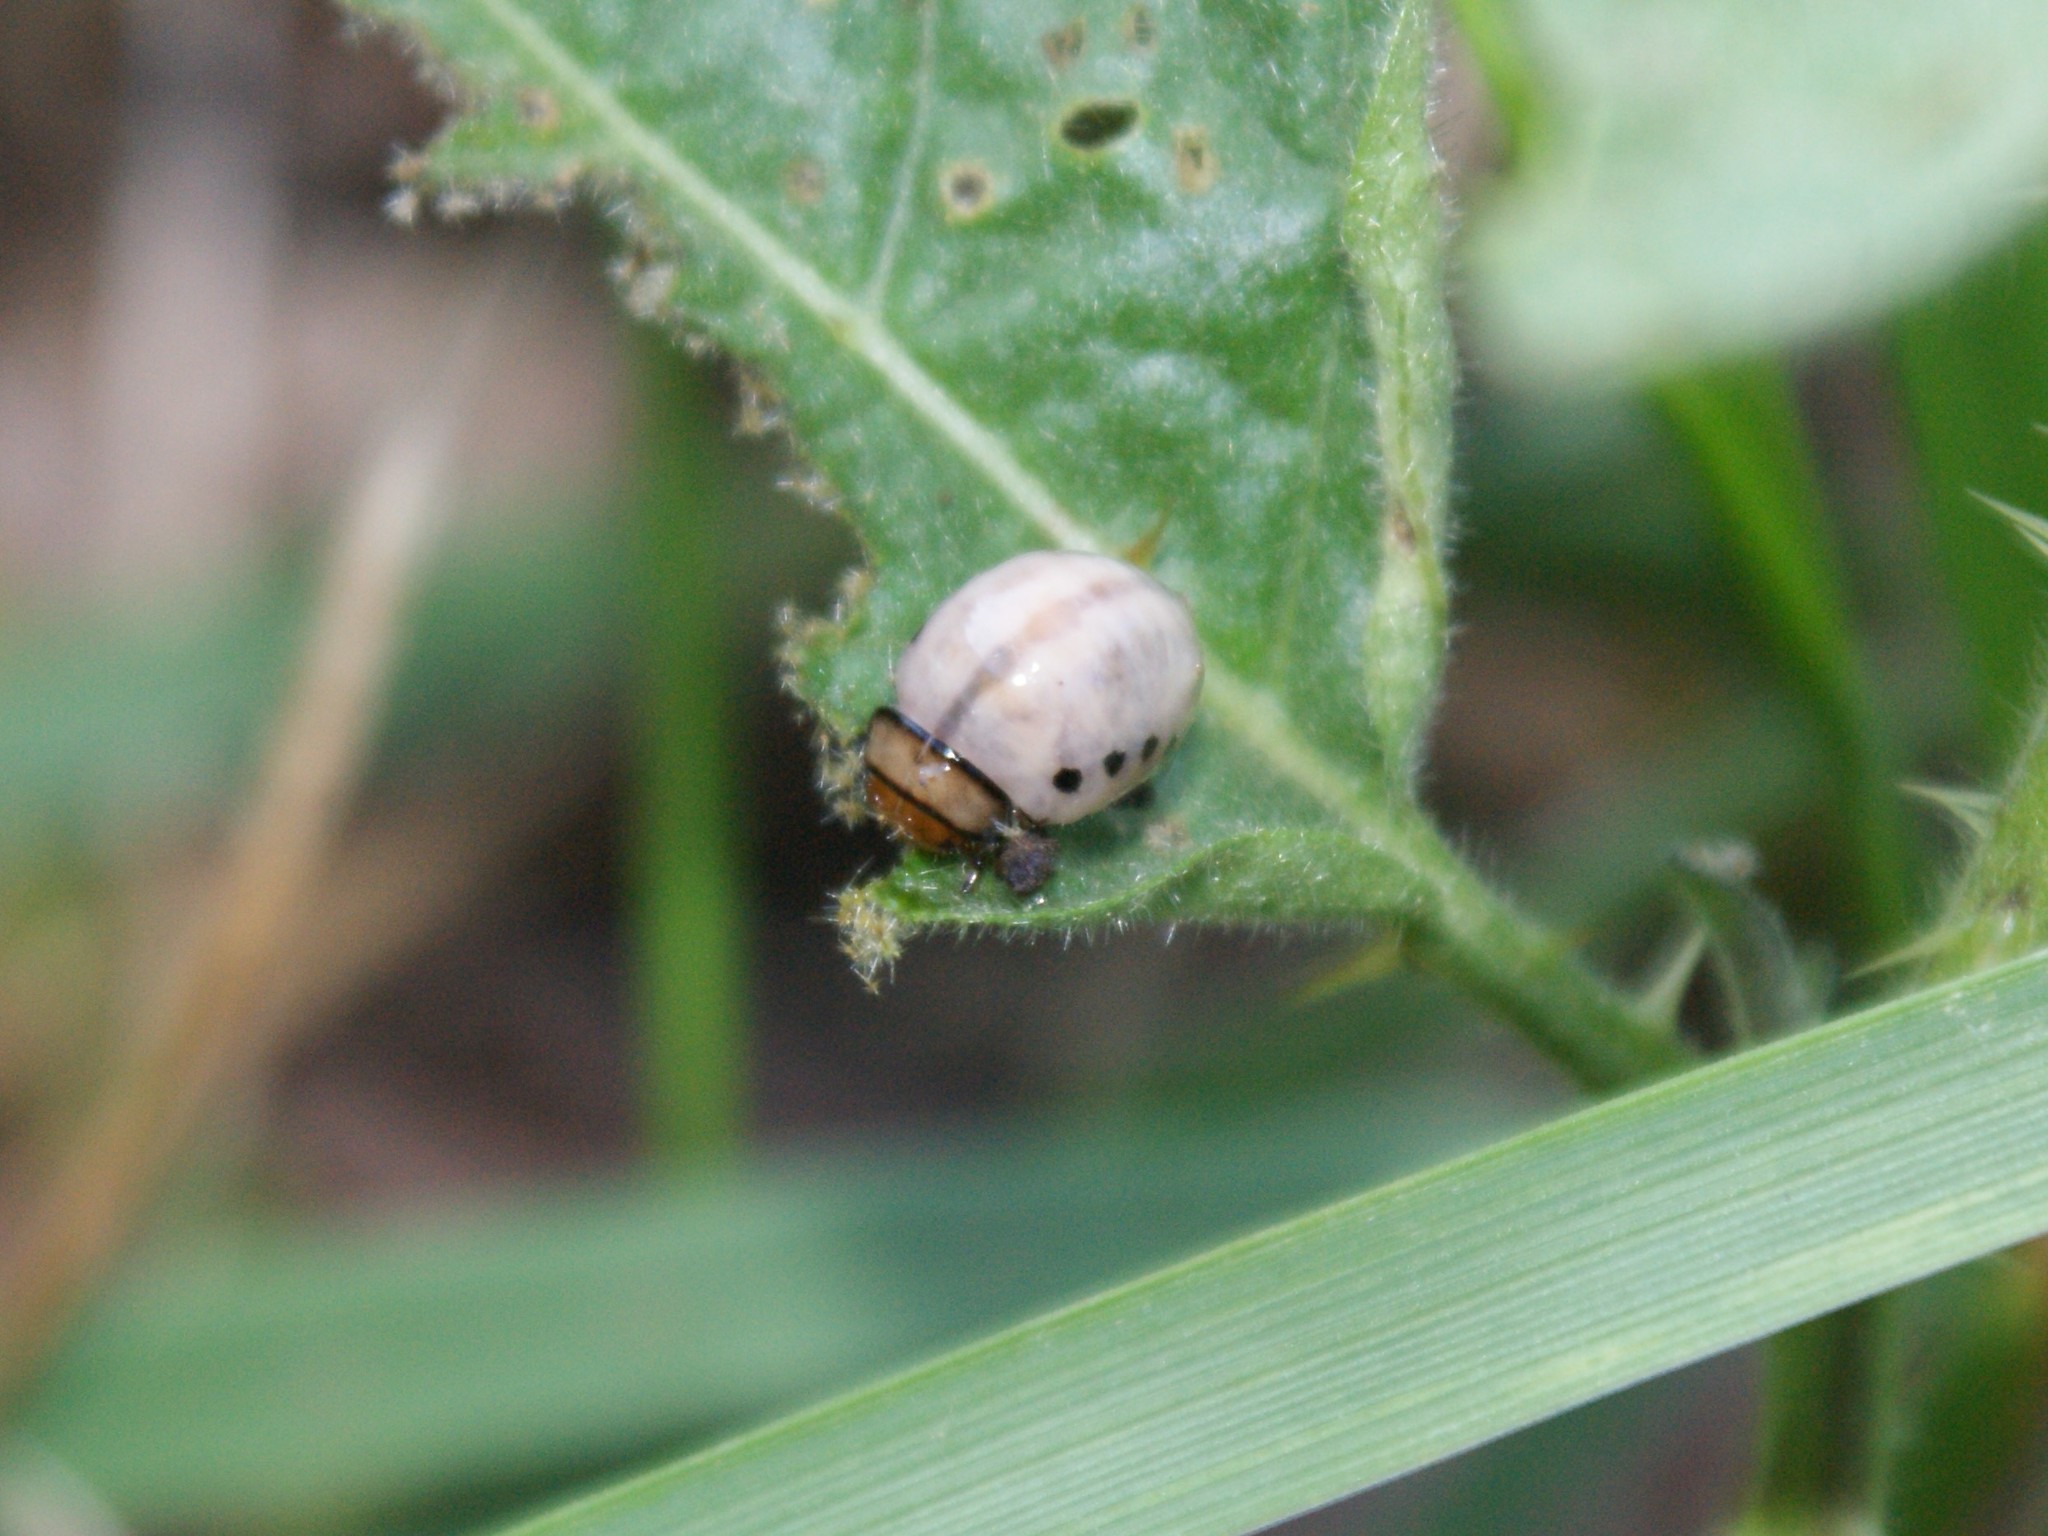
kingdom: Animalia
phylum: Arthropoda
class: Insecta
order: Coleoptera
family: Chrysomelidae
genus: Leptinotarsa
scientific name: Leptinotarsa juncta
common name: False potato beetle
